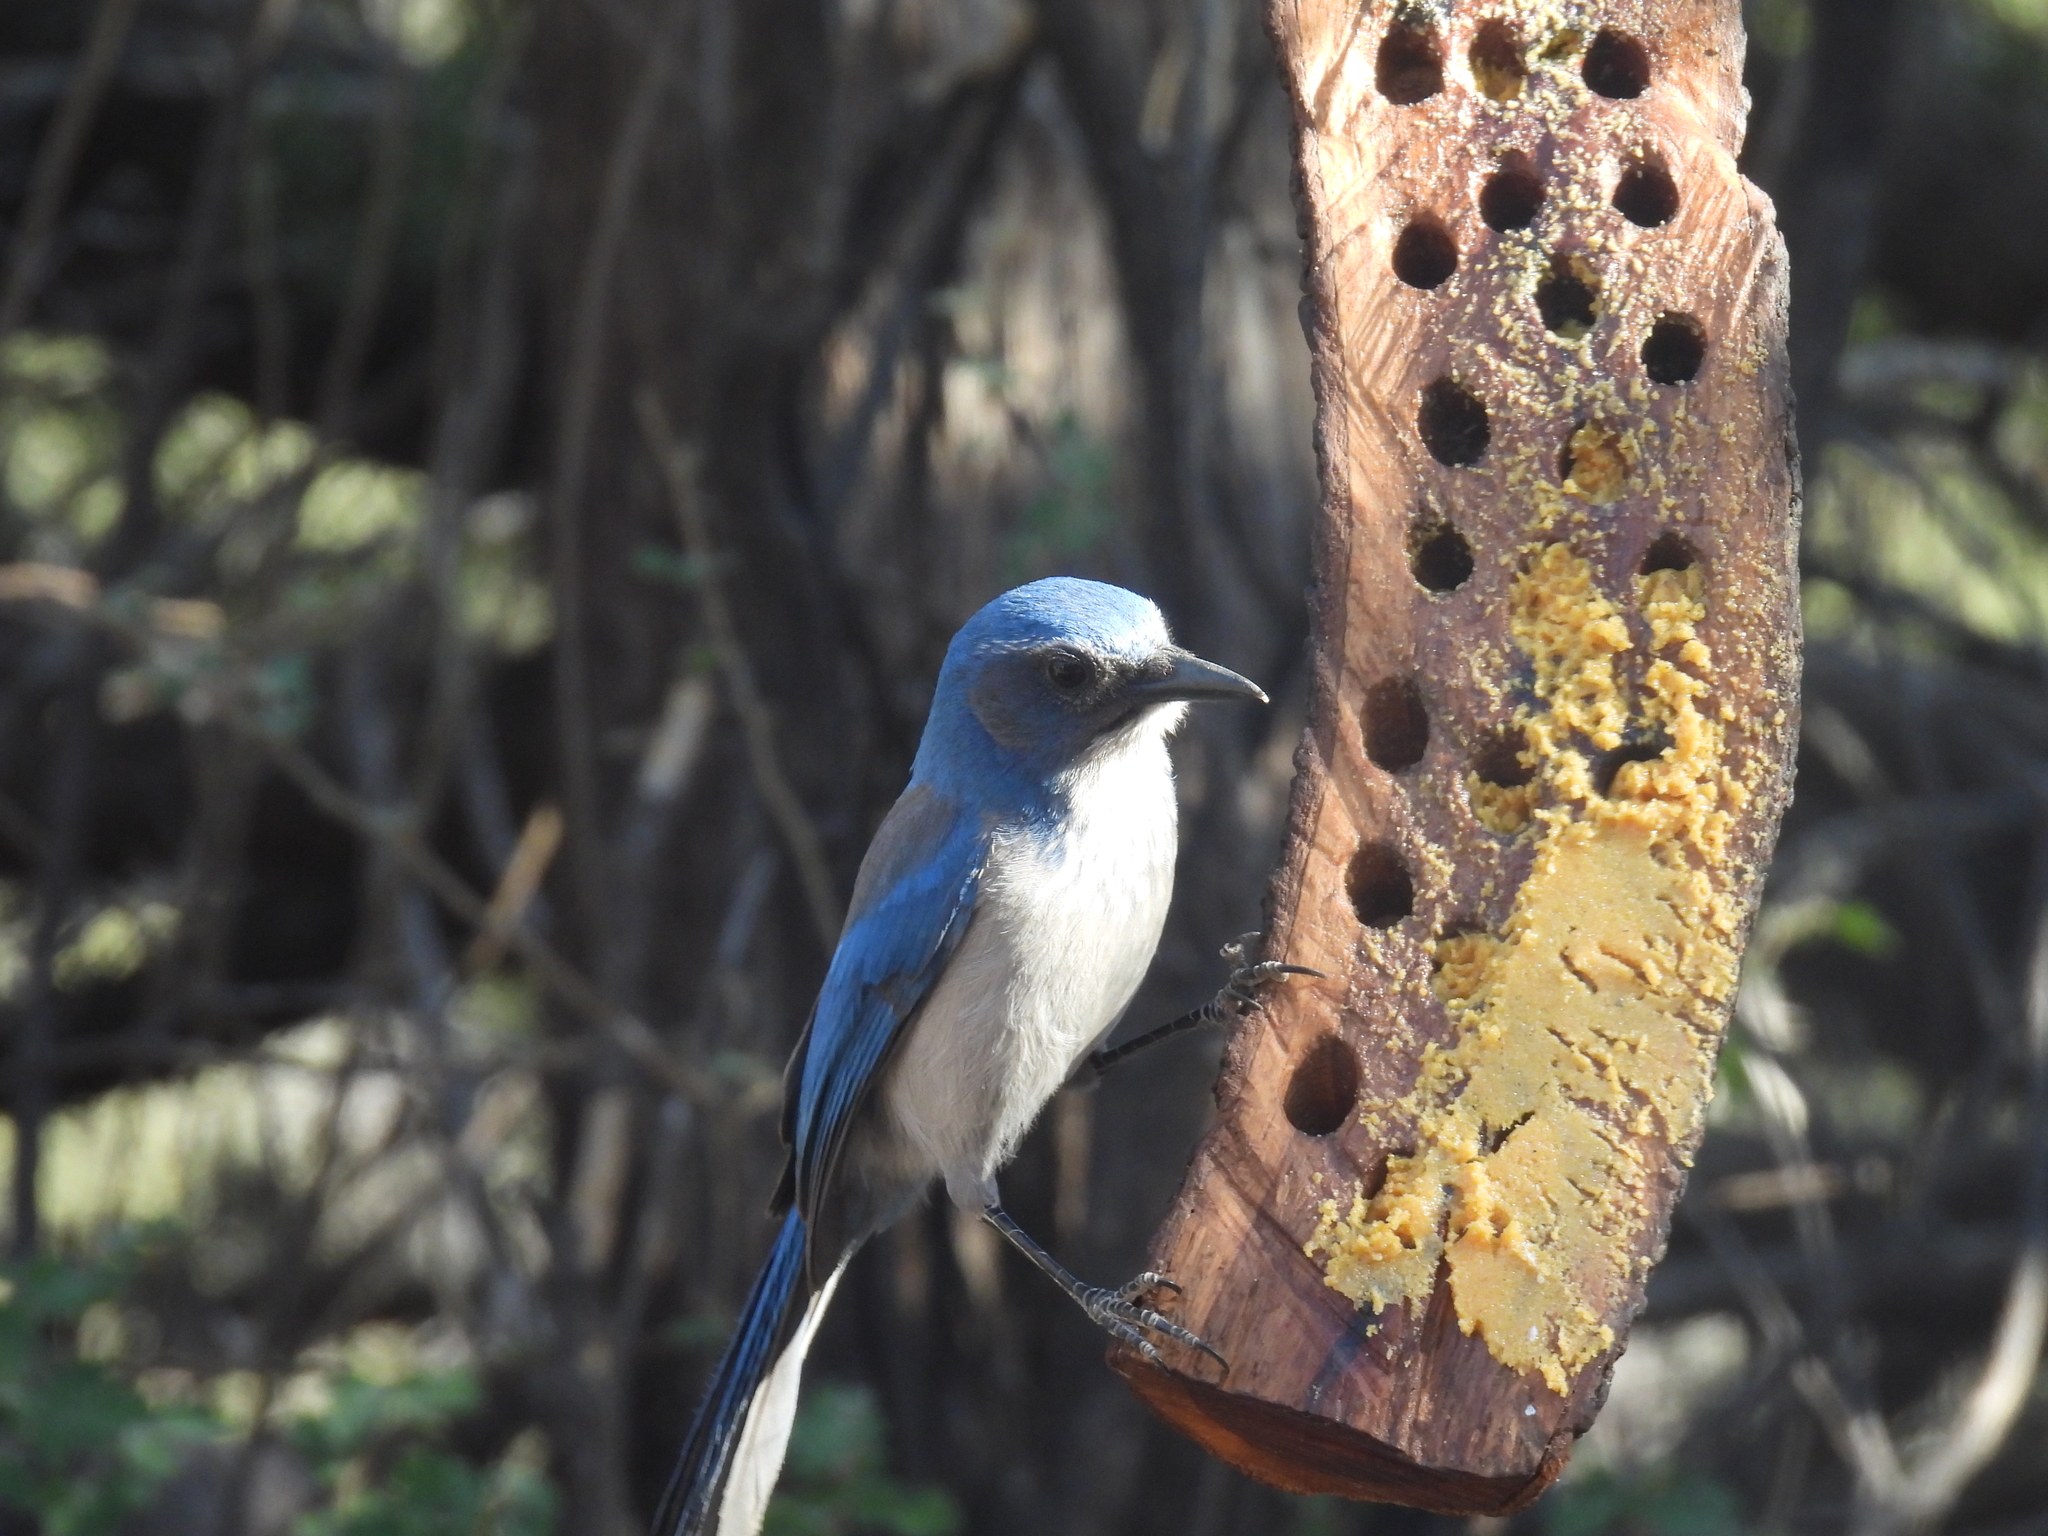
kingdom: Animalia
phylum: Chordata
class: Aves
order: Passeriformes
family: Corvidae
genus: Aphelocoma
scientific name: Aphelocoma woodhouseii
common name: Woodhouse's scrub-jay
